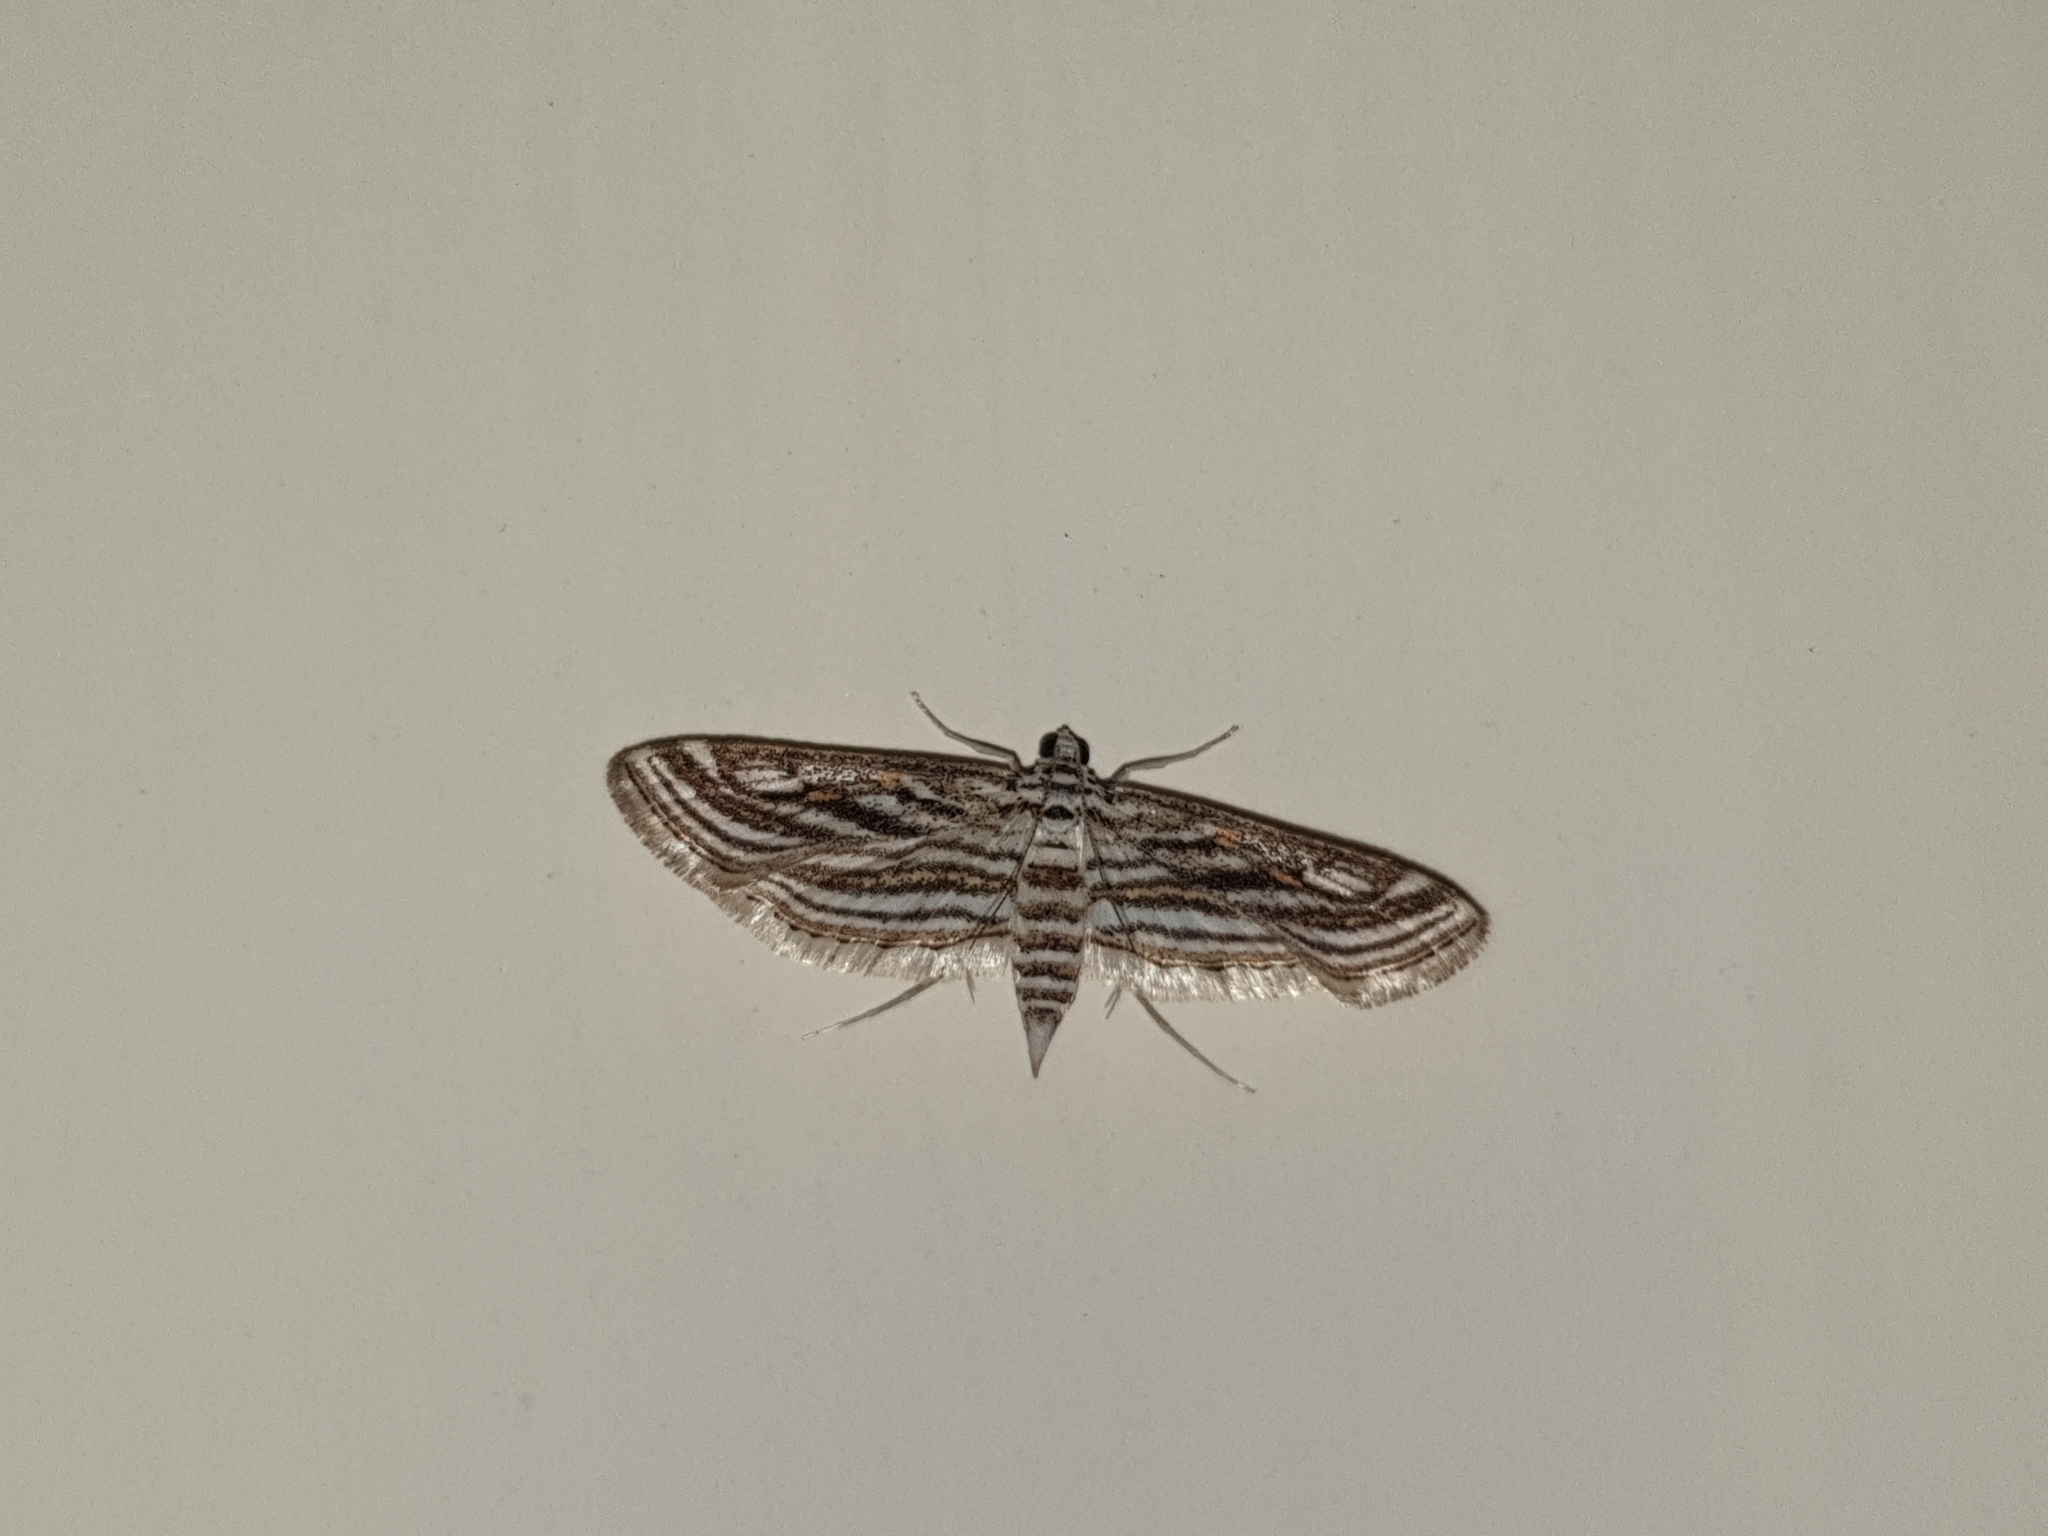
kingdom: Animalia
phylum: Arthropoda
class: Insecta
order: Lepidoptera
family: Crambidae
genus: Parapoynx
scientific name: Parapoynx fluctuosalis
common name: Moth
